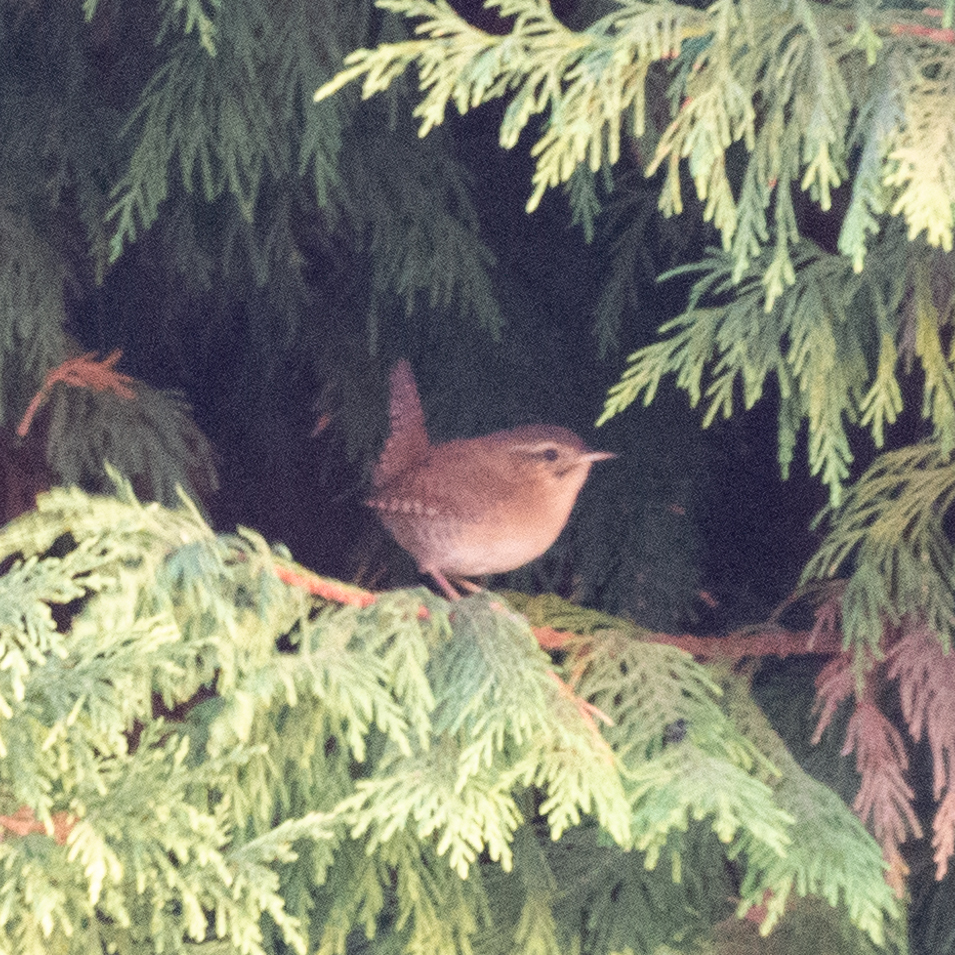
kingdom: Animalia
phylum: Chordata
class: Aves
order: Passeriformes
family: Troglodytidae
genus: Troglodytes
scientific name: Troglodytes troglodytes
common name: Eurasian wren
